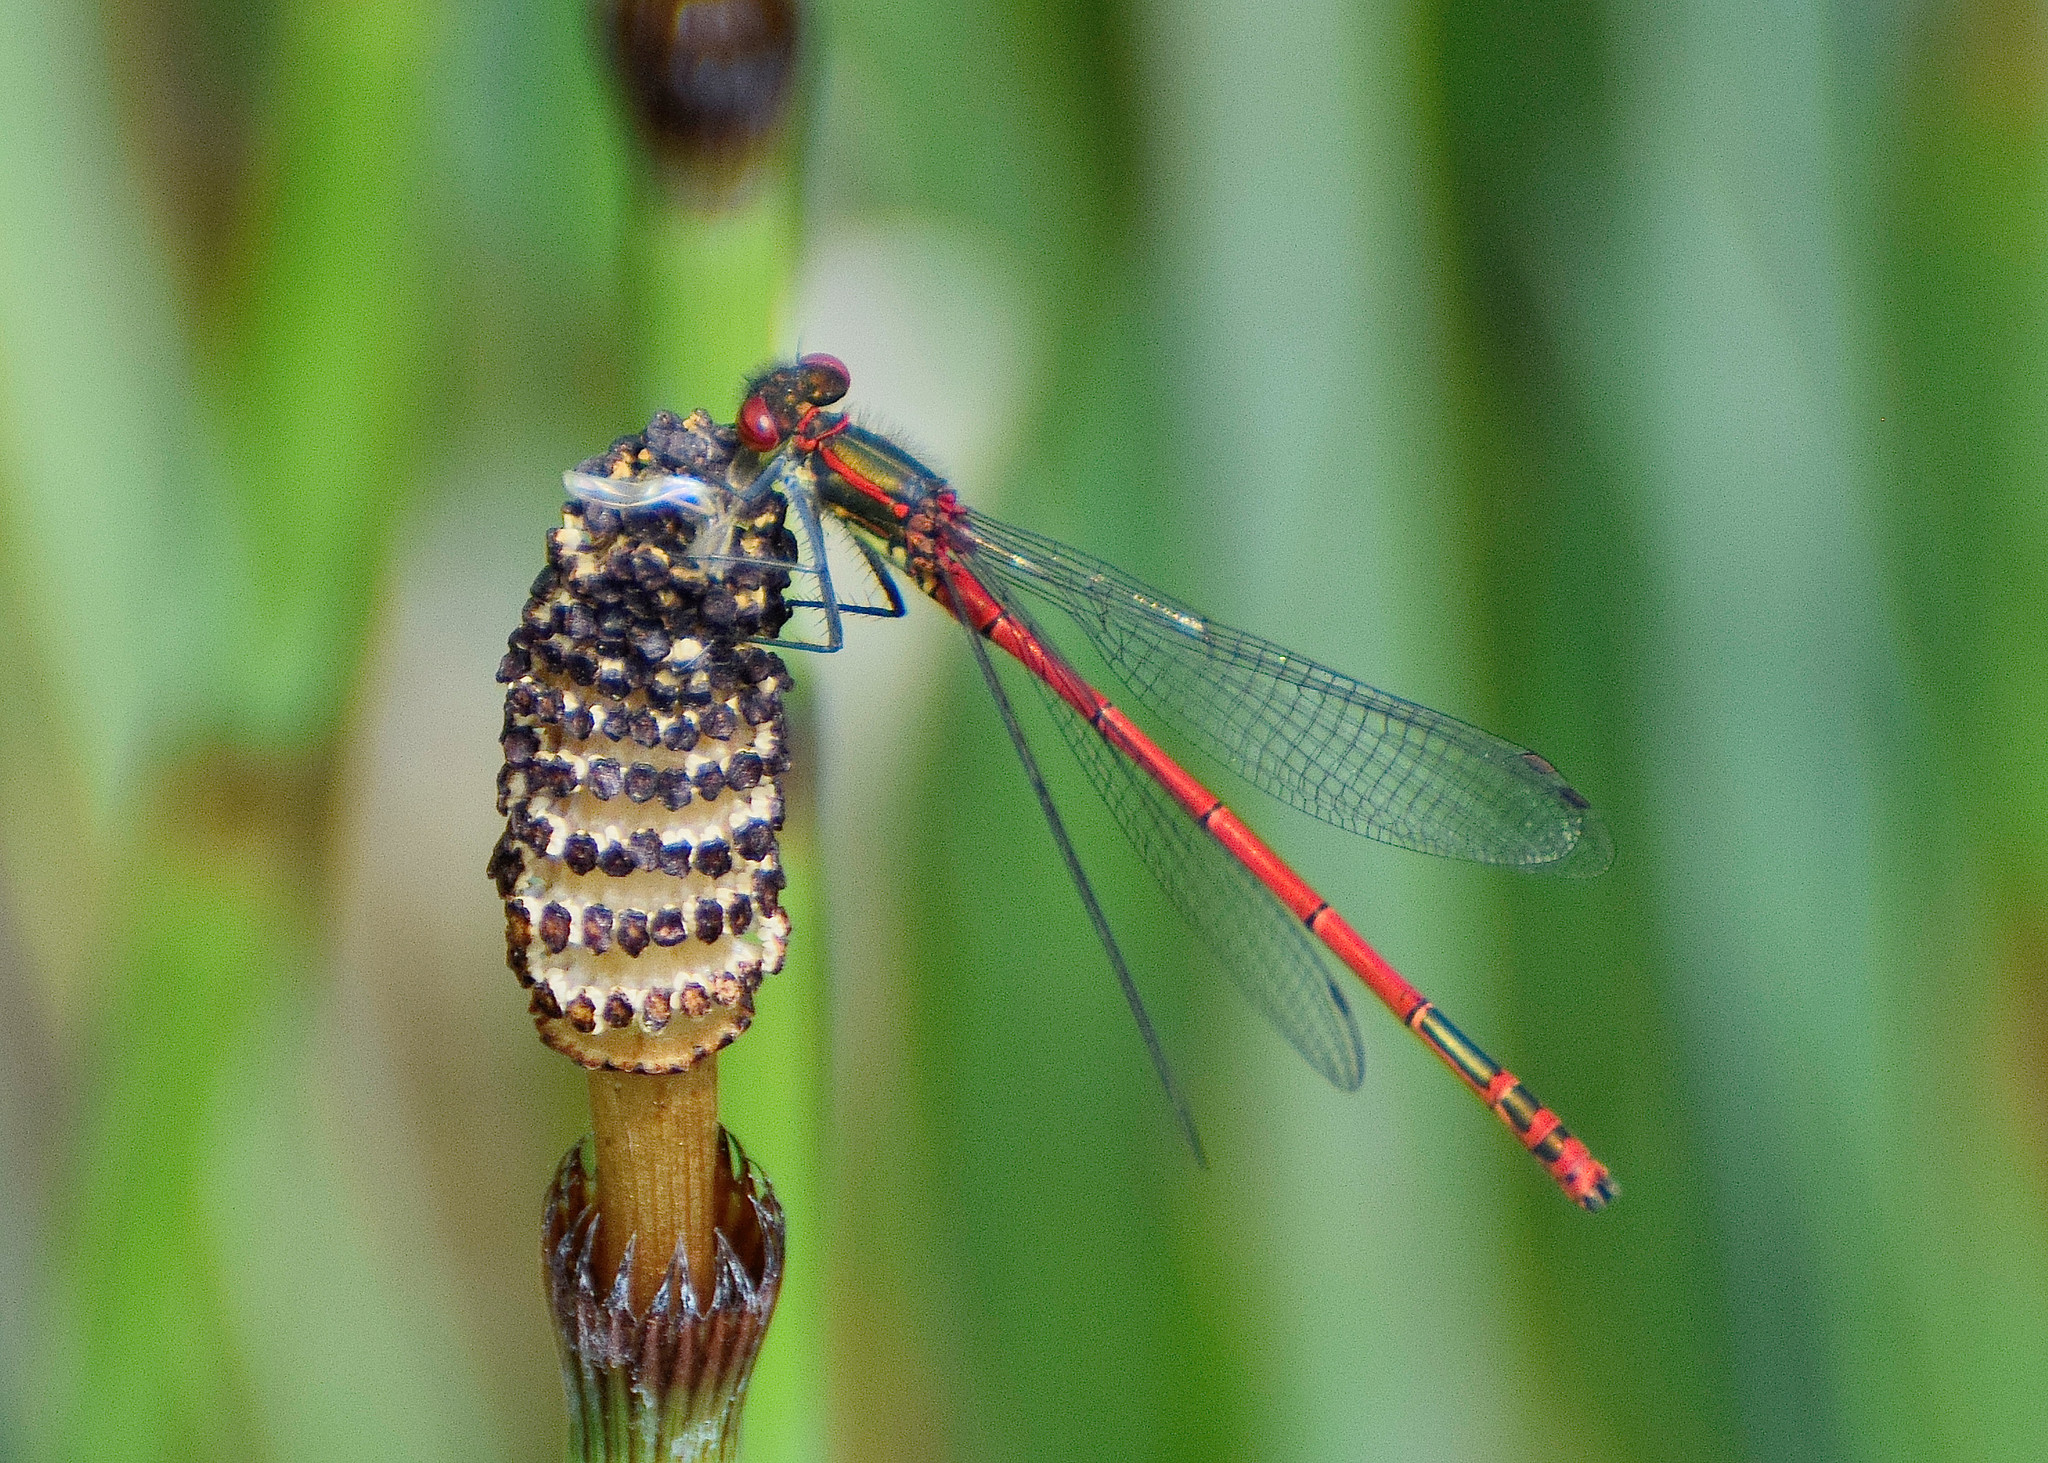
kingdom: Animalia
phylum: Arthropoda
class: Insecta
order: Odonata
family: Coenagrionidae
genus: Pyrrhosoma
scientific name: Pyrrhosoma nymphula
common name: Large red damsel
